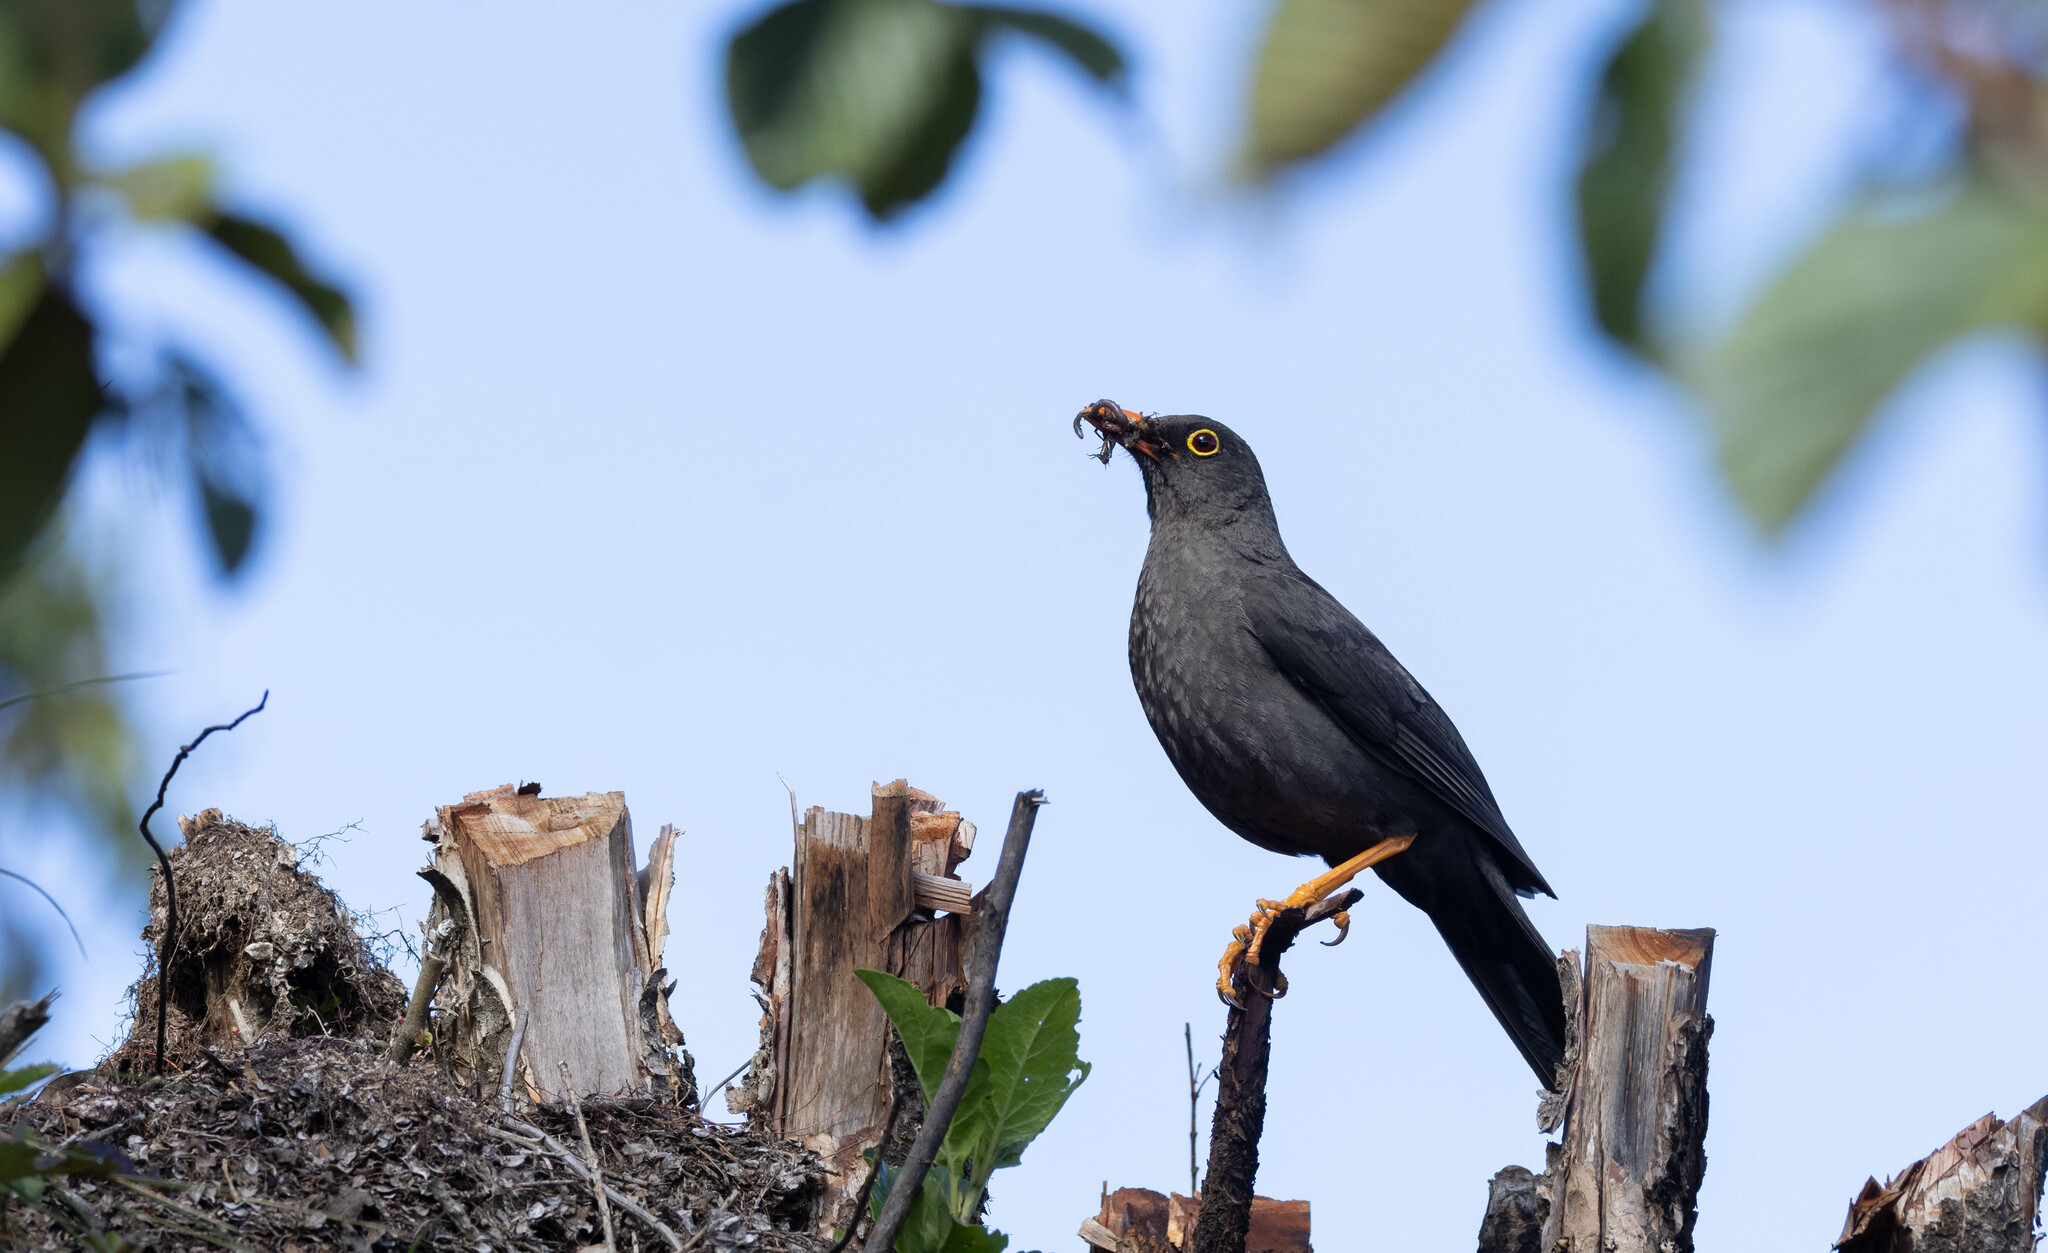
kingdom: Animalia
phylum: Chordata
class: Aves
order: Passeriformes
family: Turdidae
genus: Turdus
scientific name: Turdus fuscater
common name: Great thrush
